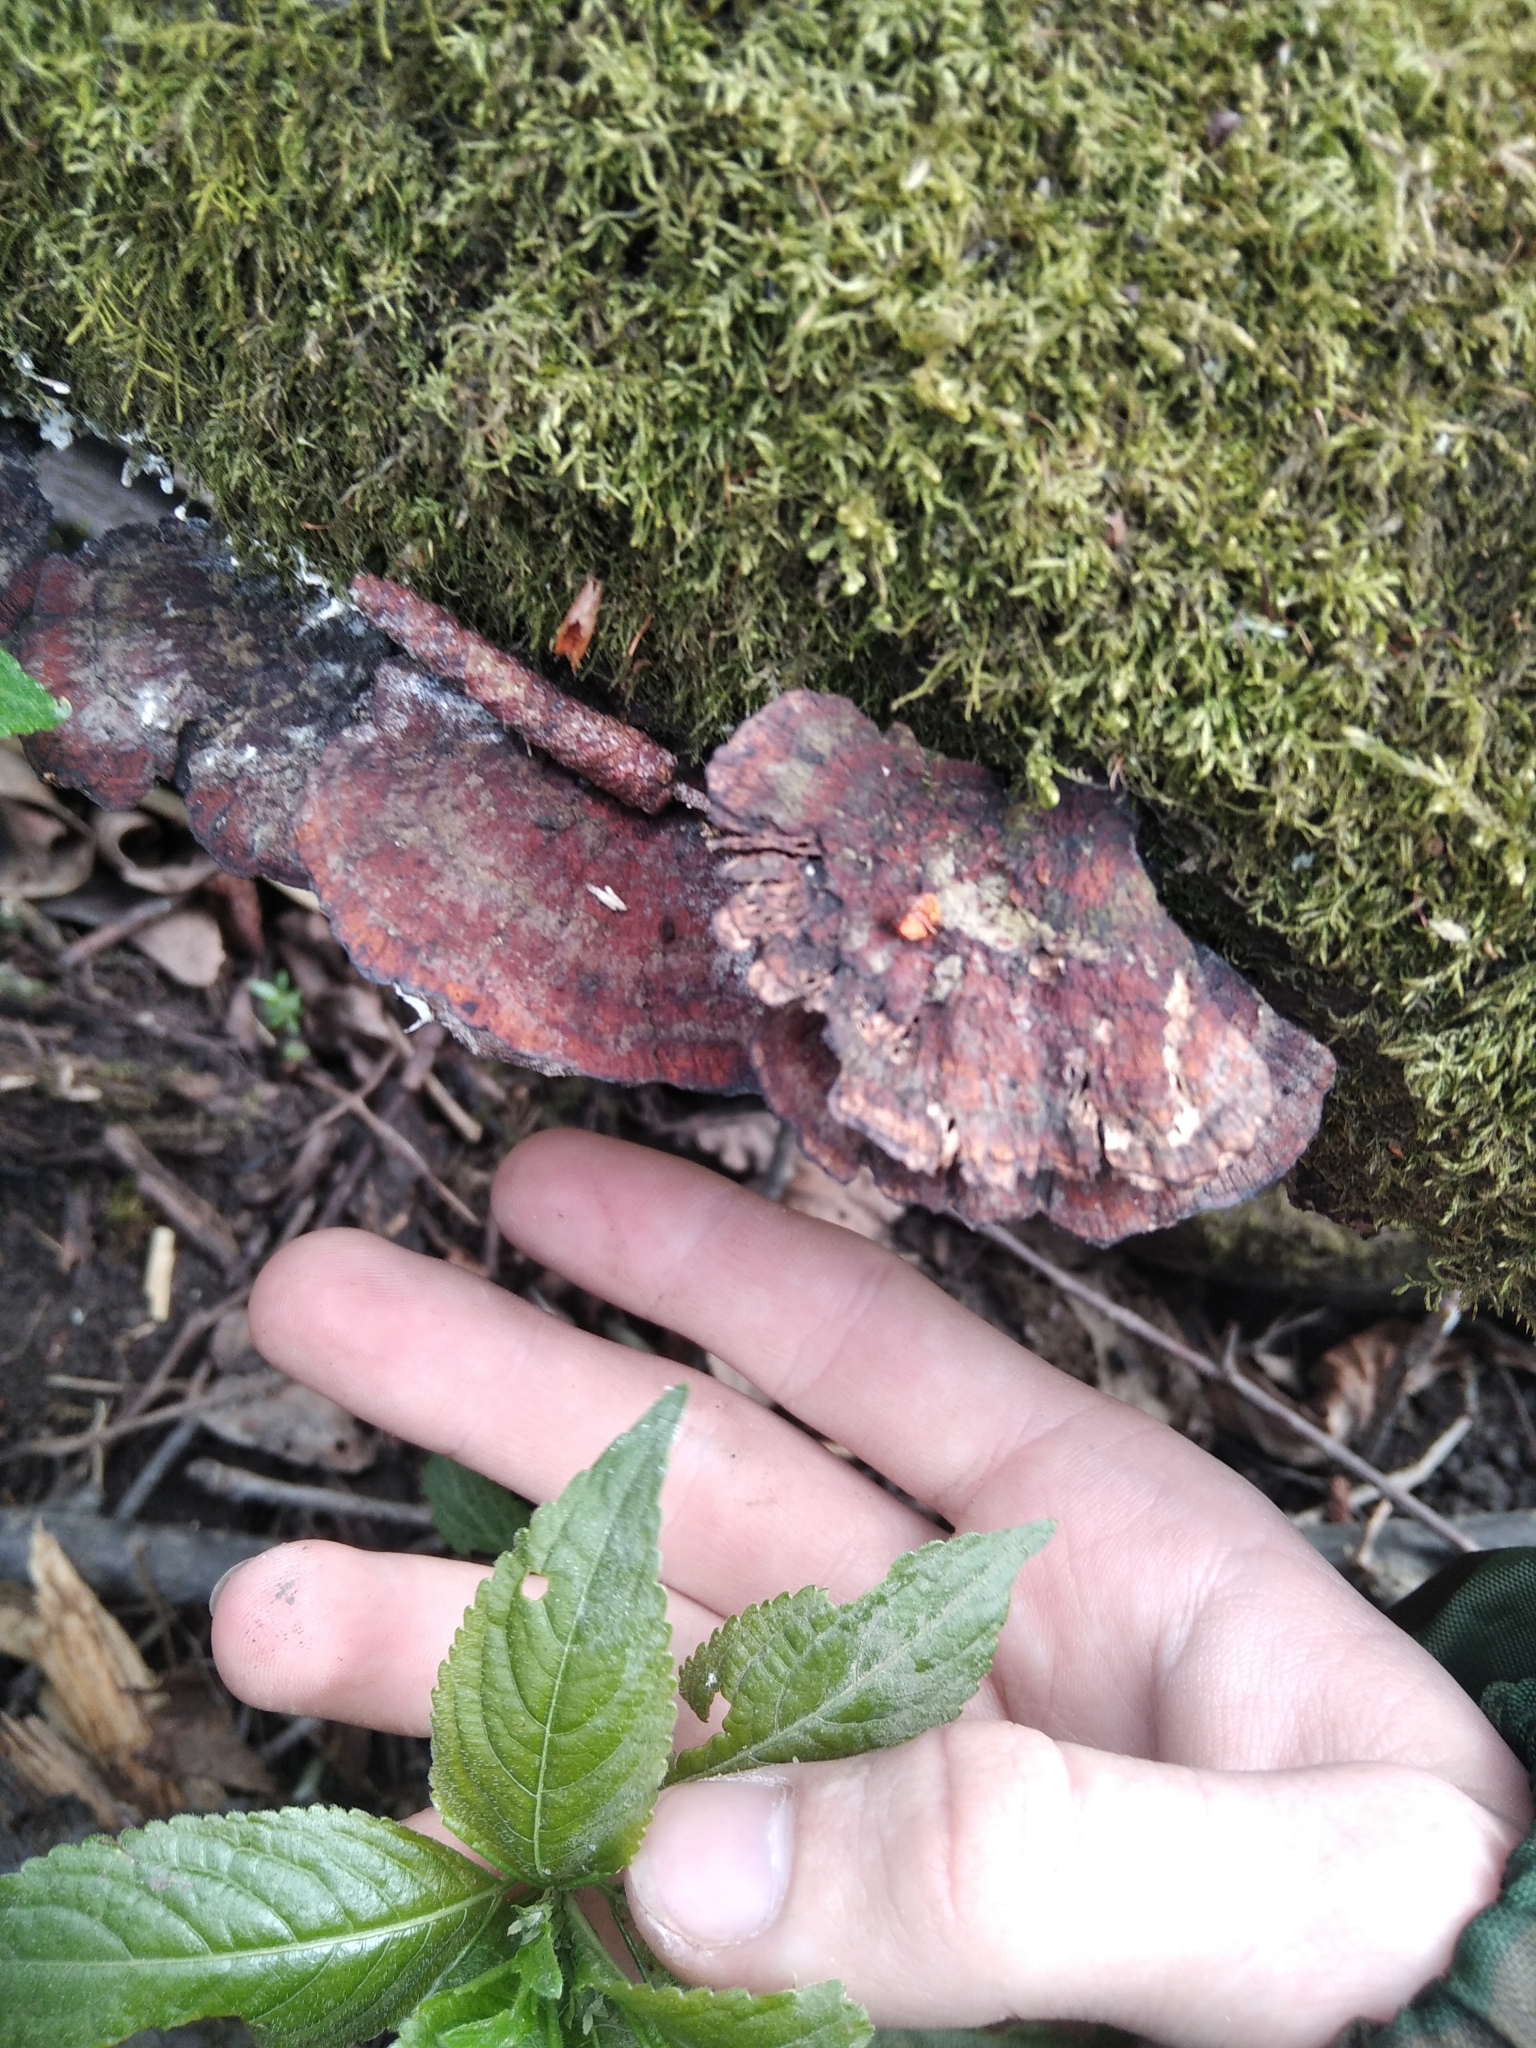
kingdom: Fungi
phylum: Basidiomycota
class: Agaricomycetes
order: Polyporales
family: Polyporaceae
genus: Daedaleopsis
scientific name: Daedaleopsis tricolor
